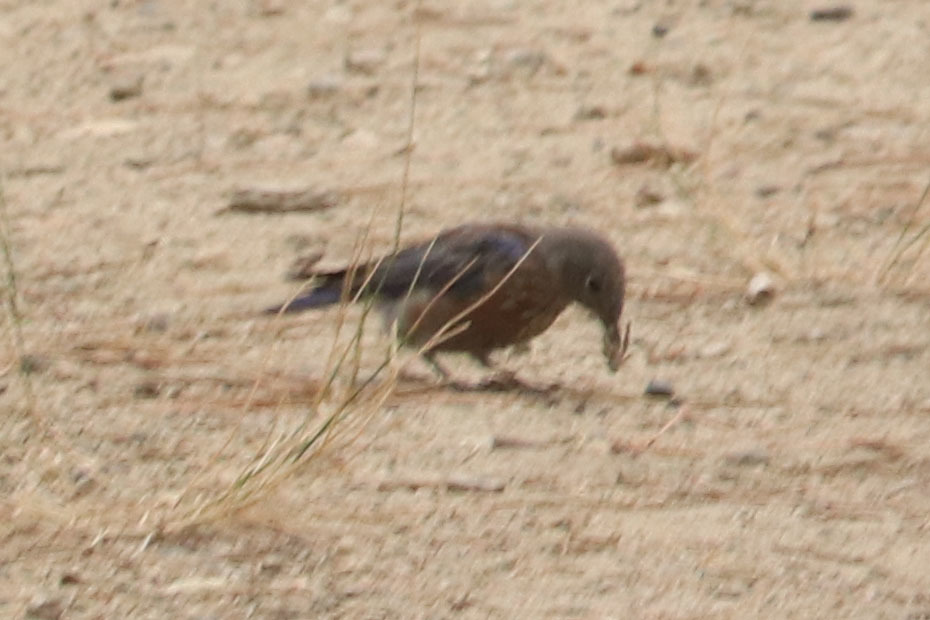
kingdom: Animalia
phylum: Chordata
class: Aves
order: Passeriformes
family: Turdidae
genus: Sialia
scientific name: Sialia mexicana
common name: Western bluebird
